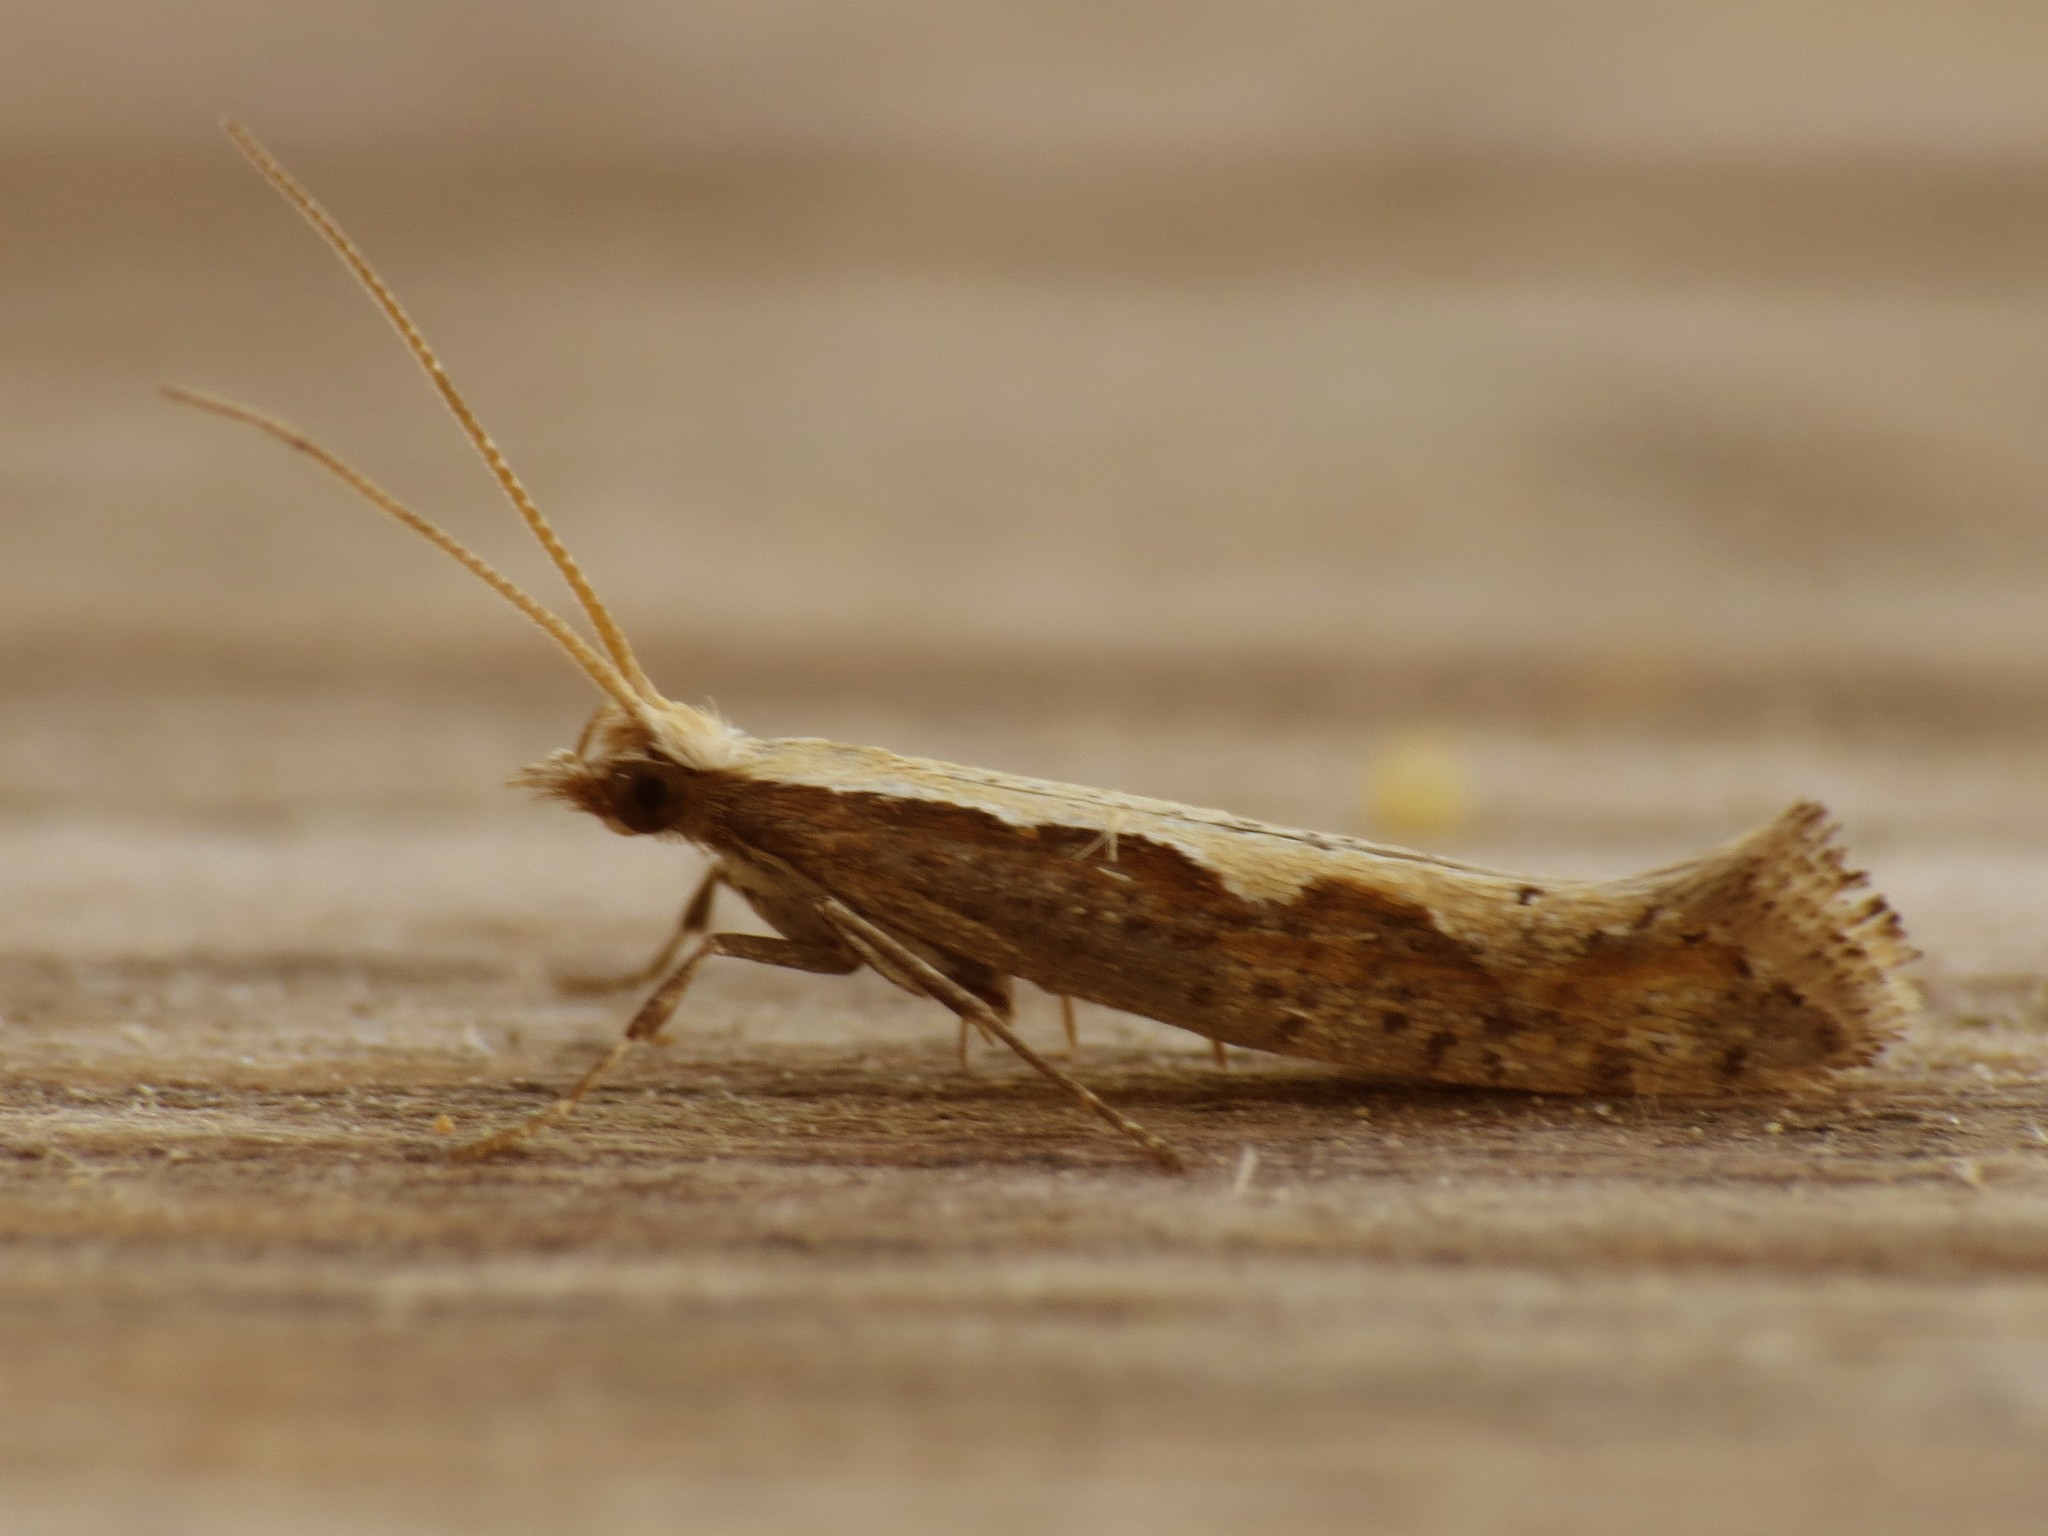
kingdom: Animalia
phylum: Arthropoda
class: Insecta
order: Lepidoptera
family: Plutellidae
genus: Plutella
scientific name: Plutella xylostella
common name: Diamond-back moth
